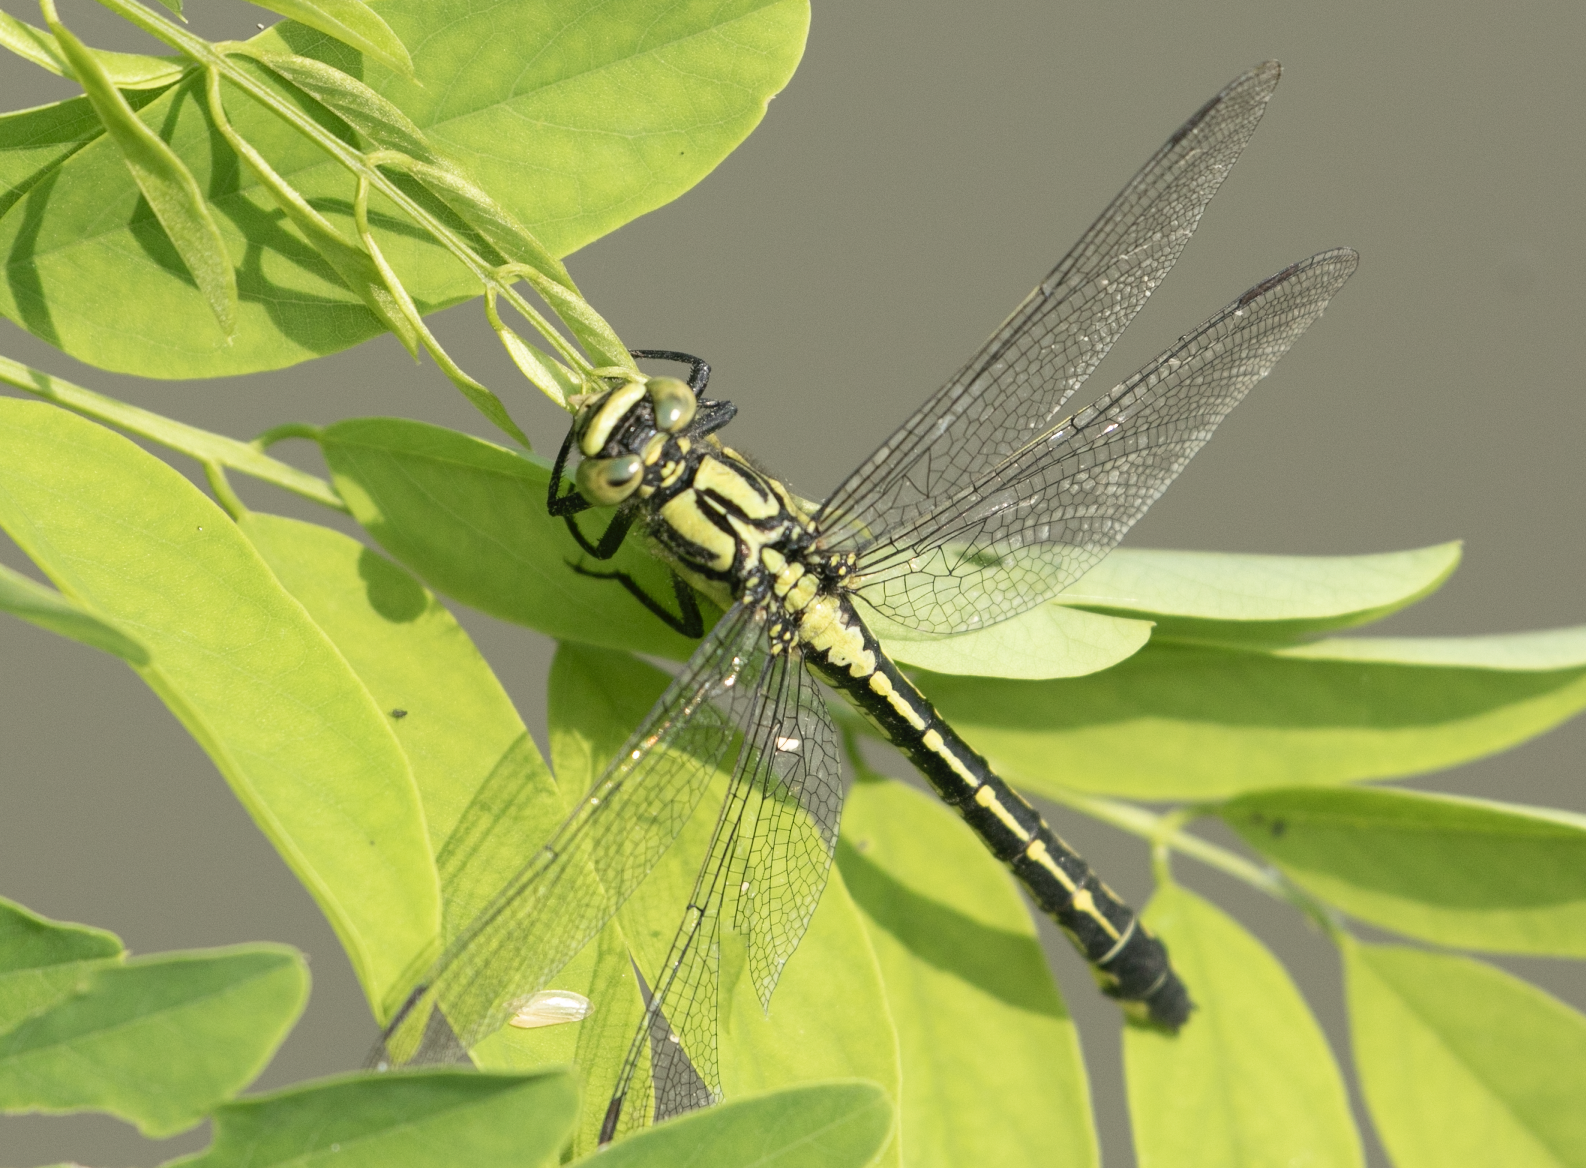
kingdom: Animalia
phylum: Arthropoda
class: Insecta
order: Odonata
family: Gomphidae
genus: Gomphus
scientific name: Gomphus vulgatissimus
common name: Club-tailed dragonfly
